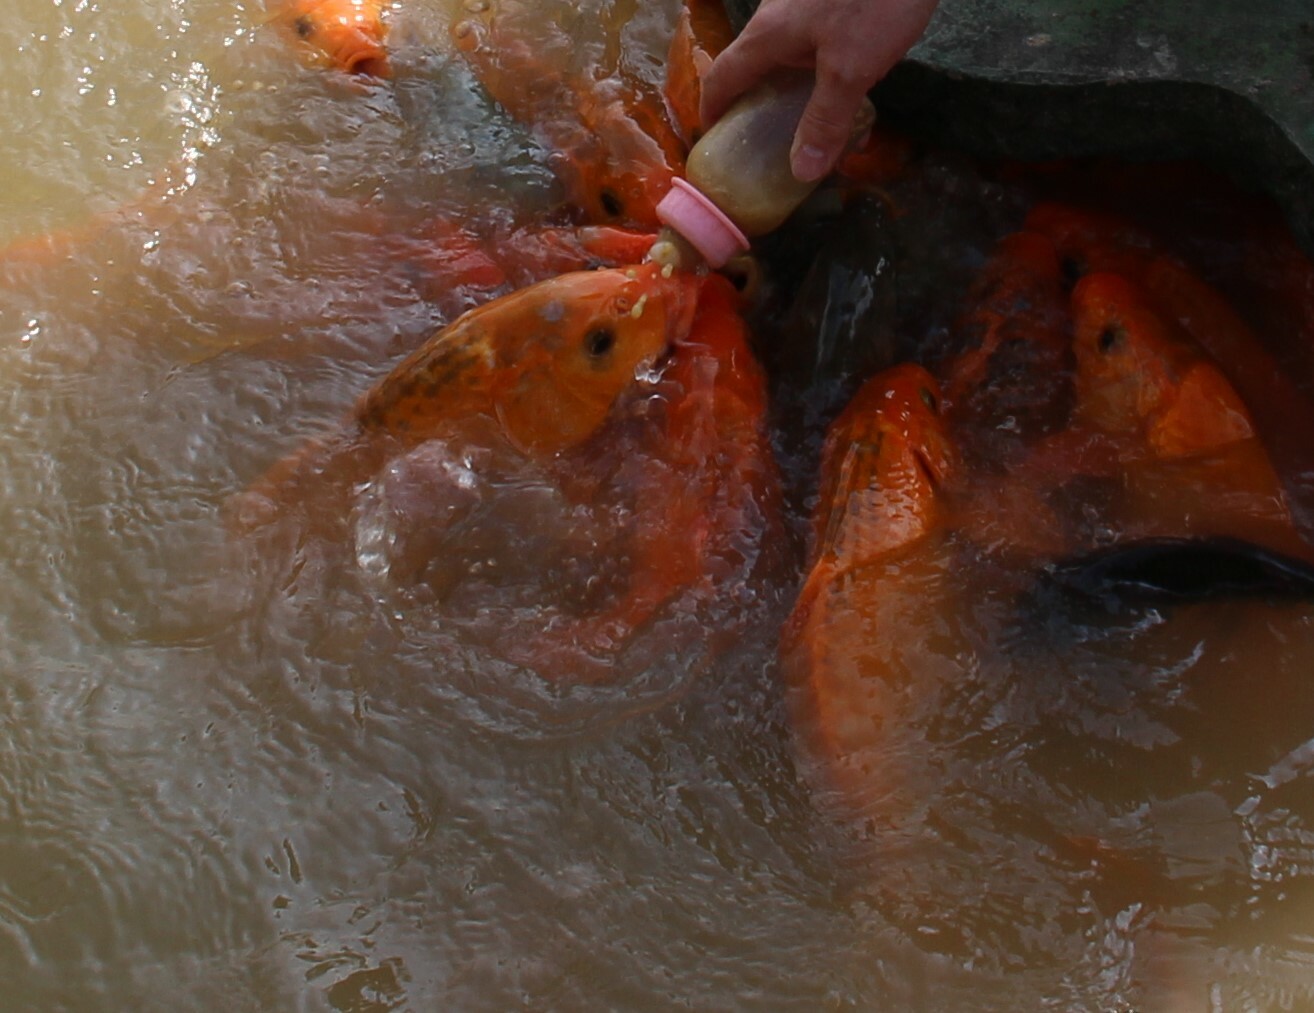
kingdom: Animalia
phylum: Chordata
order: Cypriniformes
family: Cyprinidae
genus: Cyprinus
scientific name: Cyprinus rubrofuscus
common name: Koi
